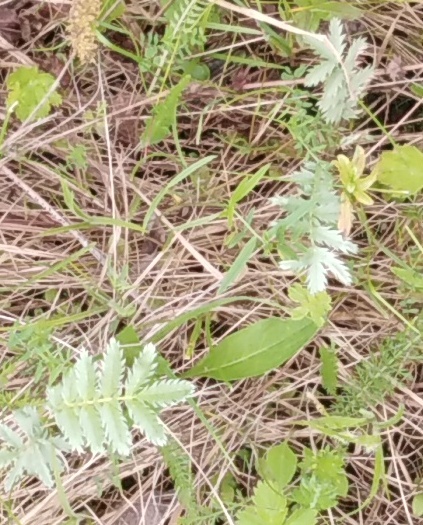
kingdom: Plantae
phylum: Tracheophyta
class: Magnoliopsida
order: Rosales
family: Rosaceae
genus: Argentina
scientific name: Argentina anserina
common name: Common silverweed
